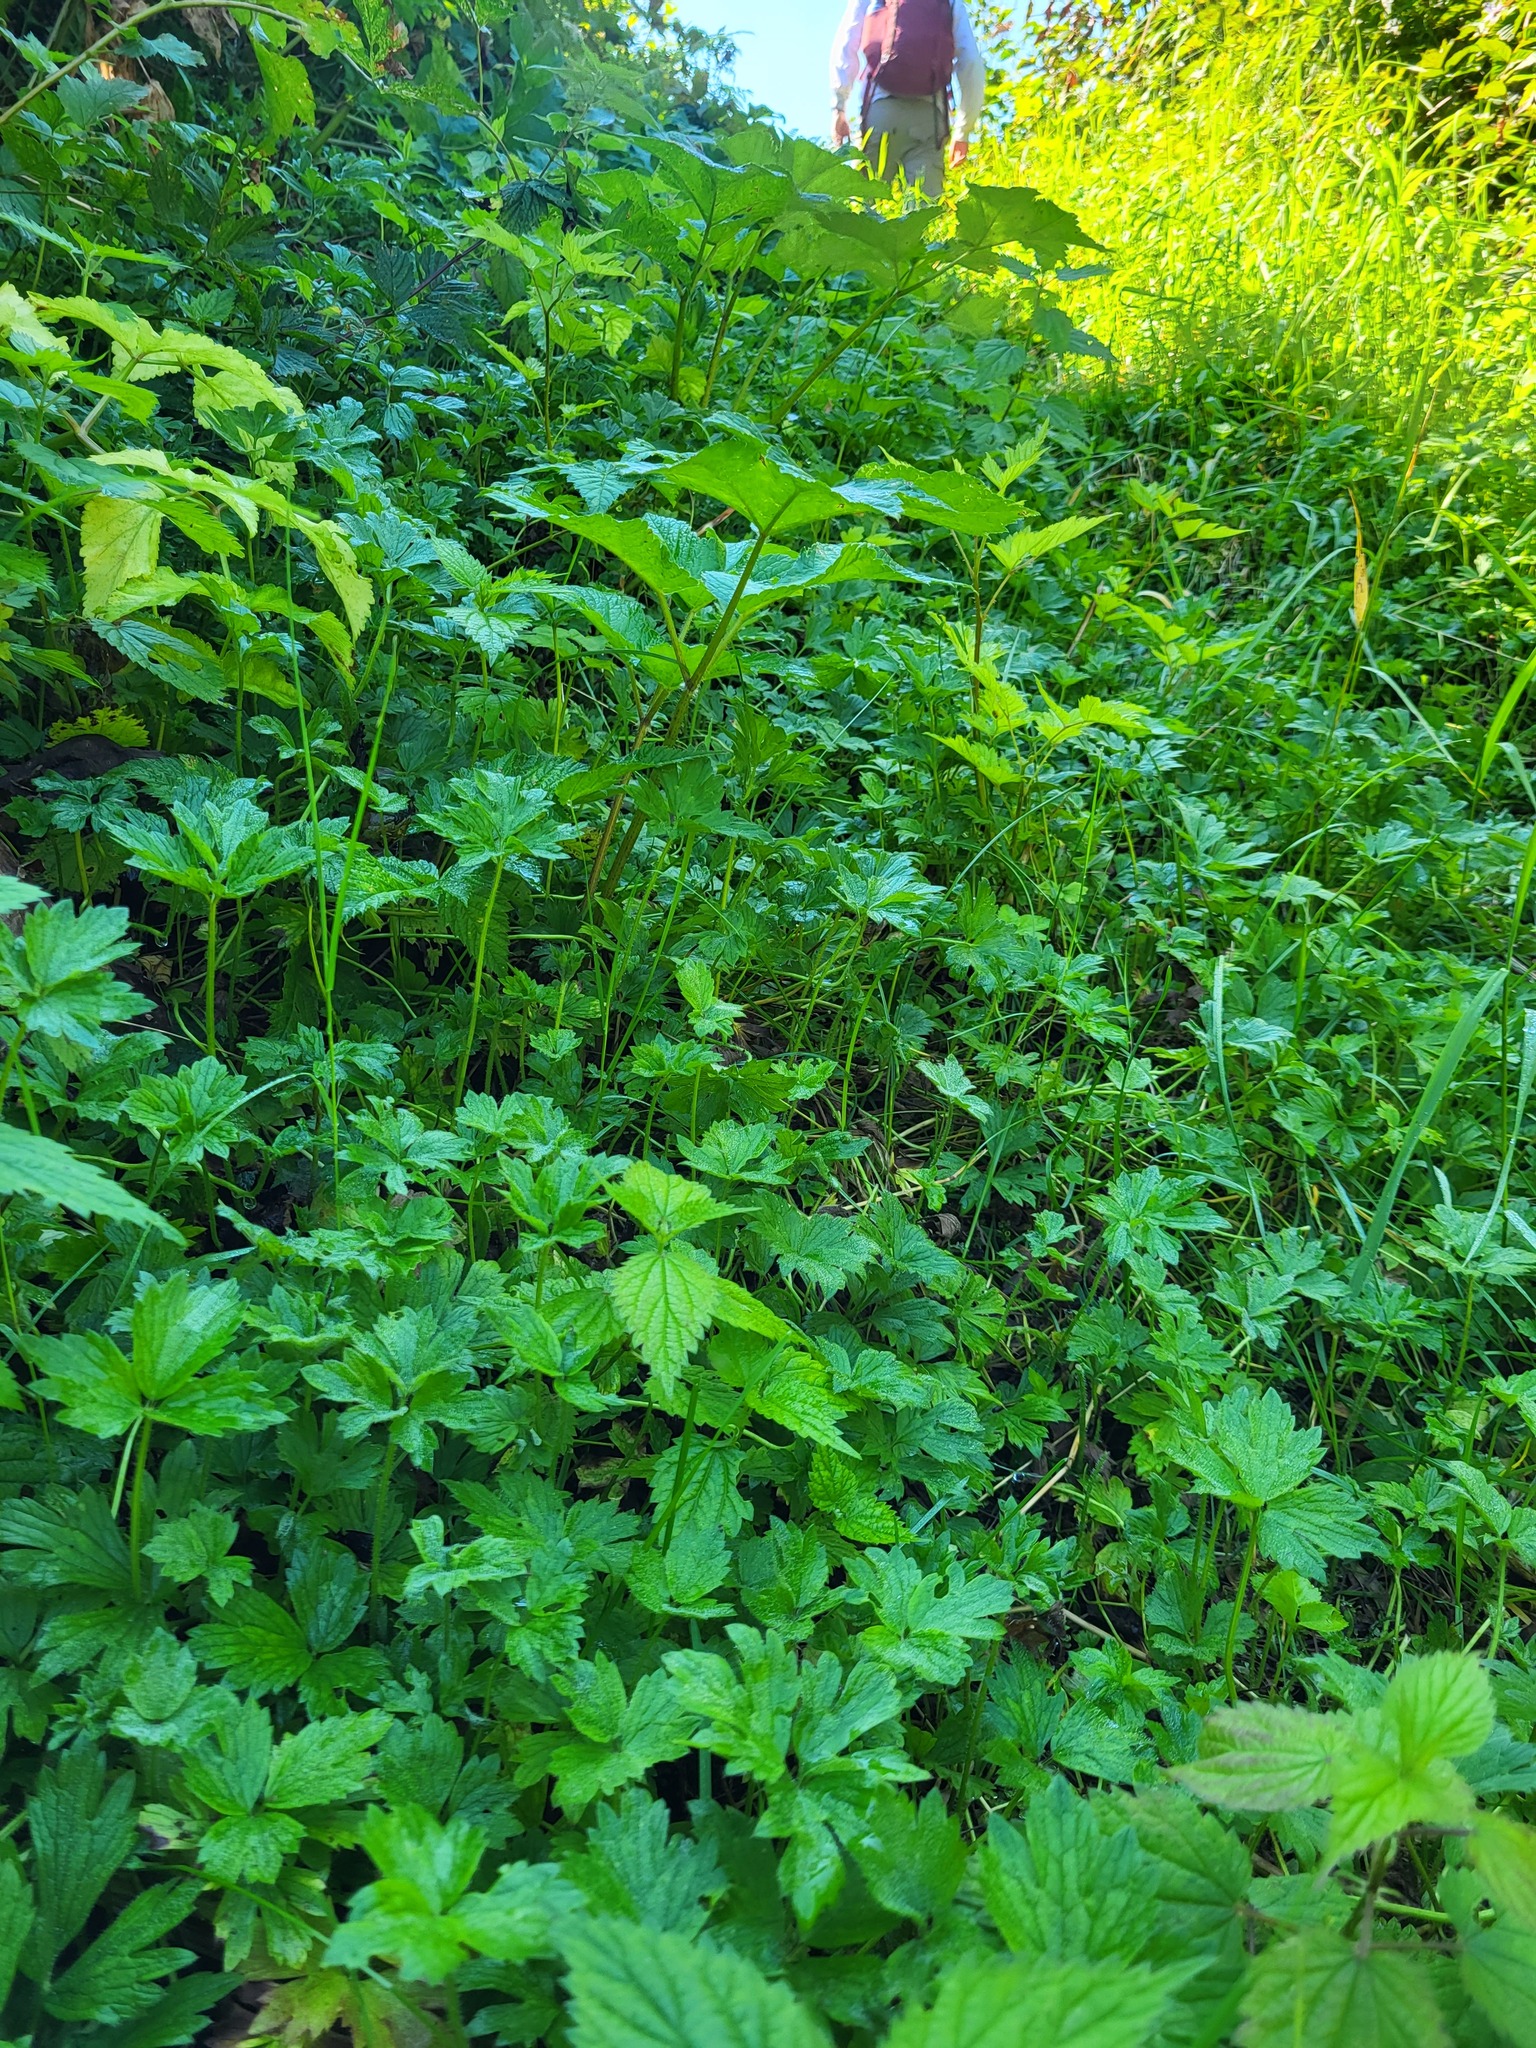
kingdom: Plantae
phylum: Tracheophyta
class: Magnoliopsida
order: Ranunculales
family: Ranunculaceae
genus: Ranunculus
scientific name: Ranunculus repens
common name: Creeping buttercup
